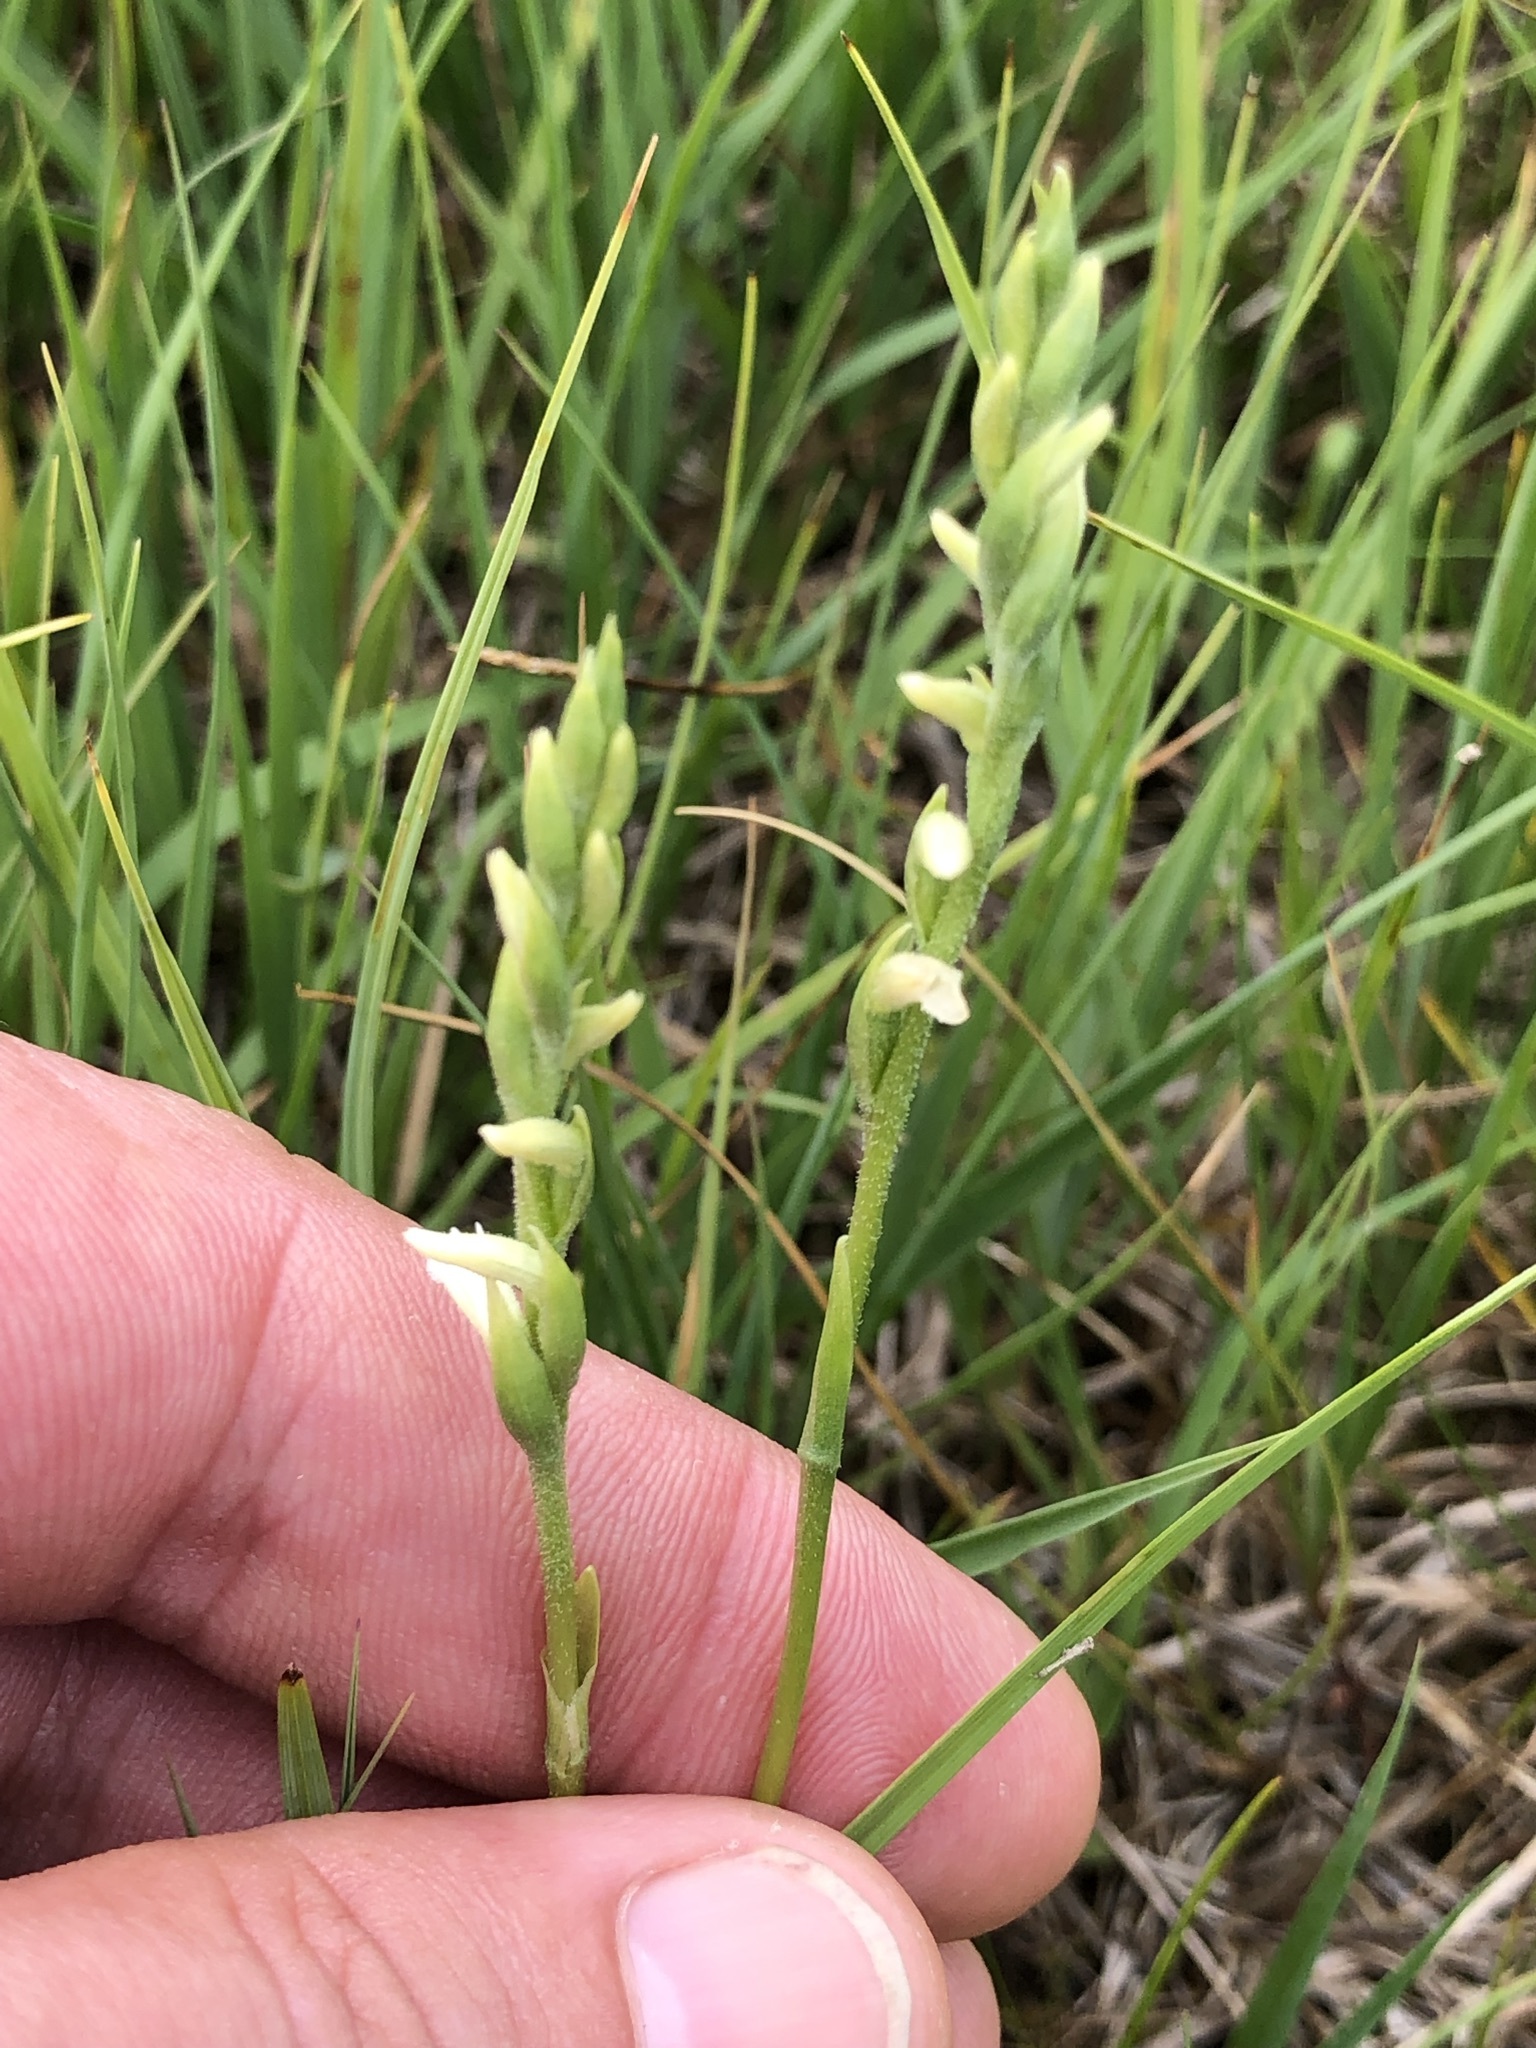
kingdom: Plantae
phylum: Tracheophyta
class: Liliopsida
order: Asparagales
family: Orchidaceae
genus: Spiranthes
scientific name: Spiranthes aestivalis
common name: Summer lady's-tresses
